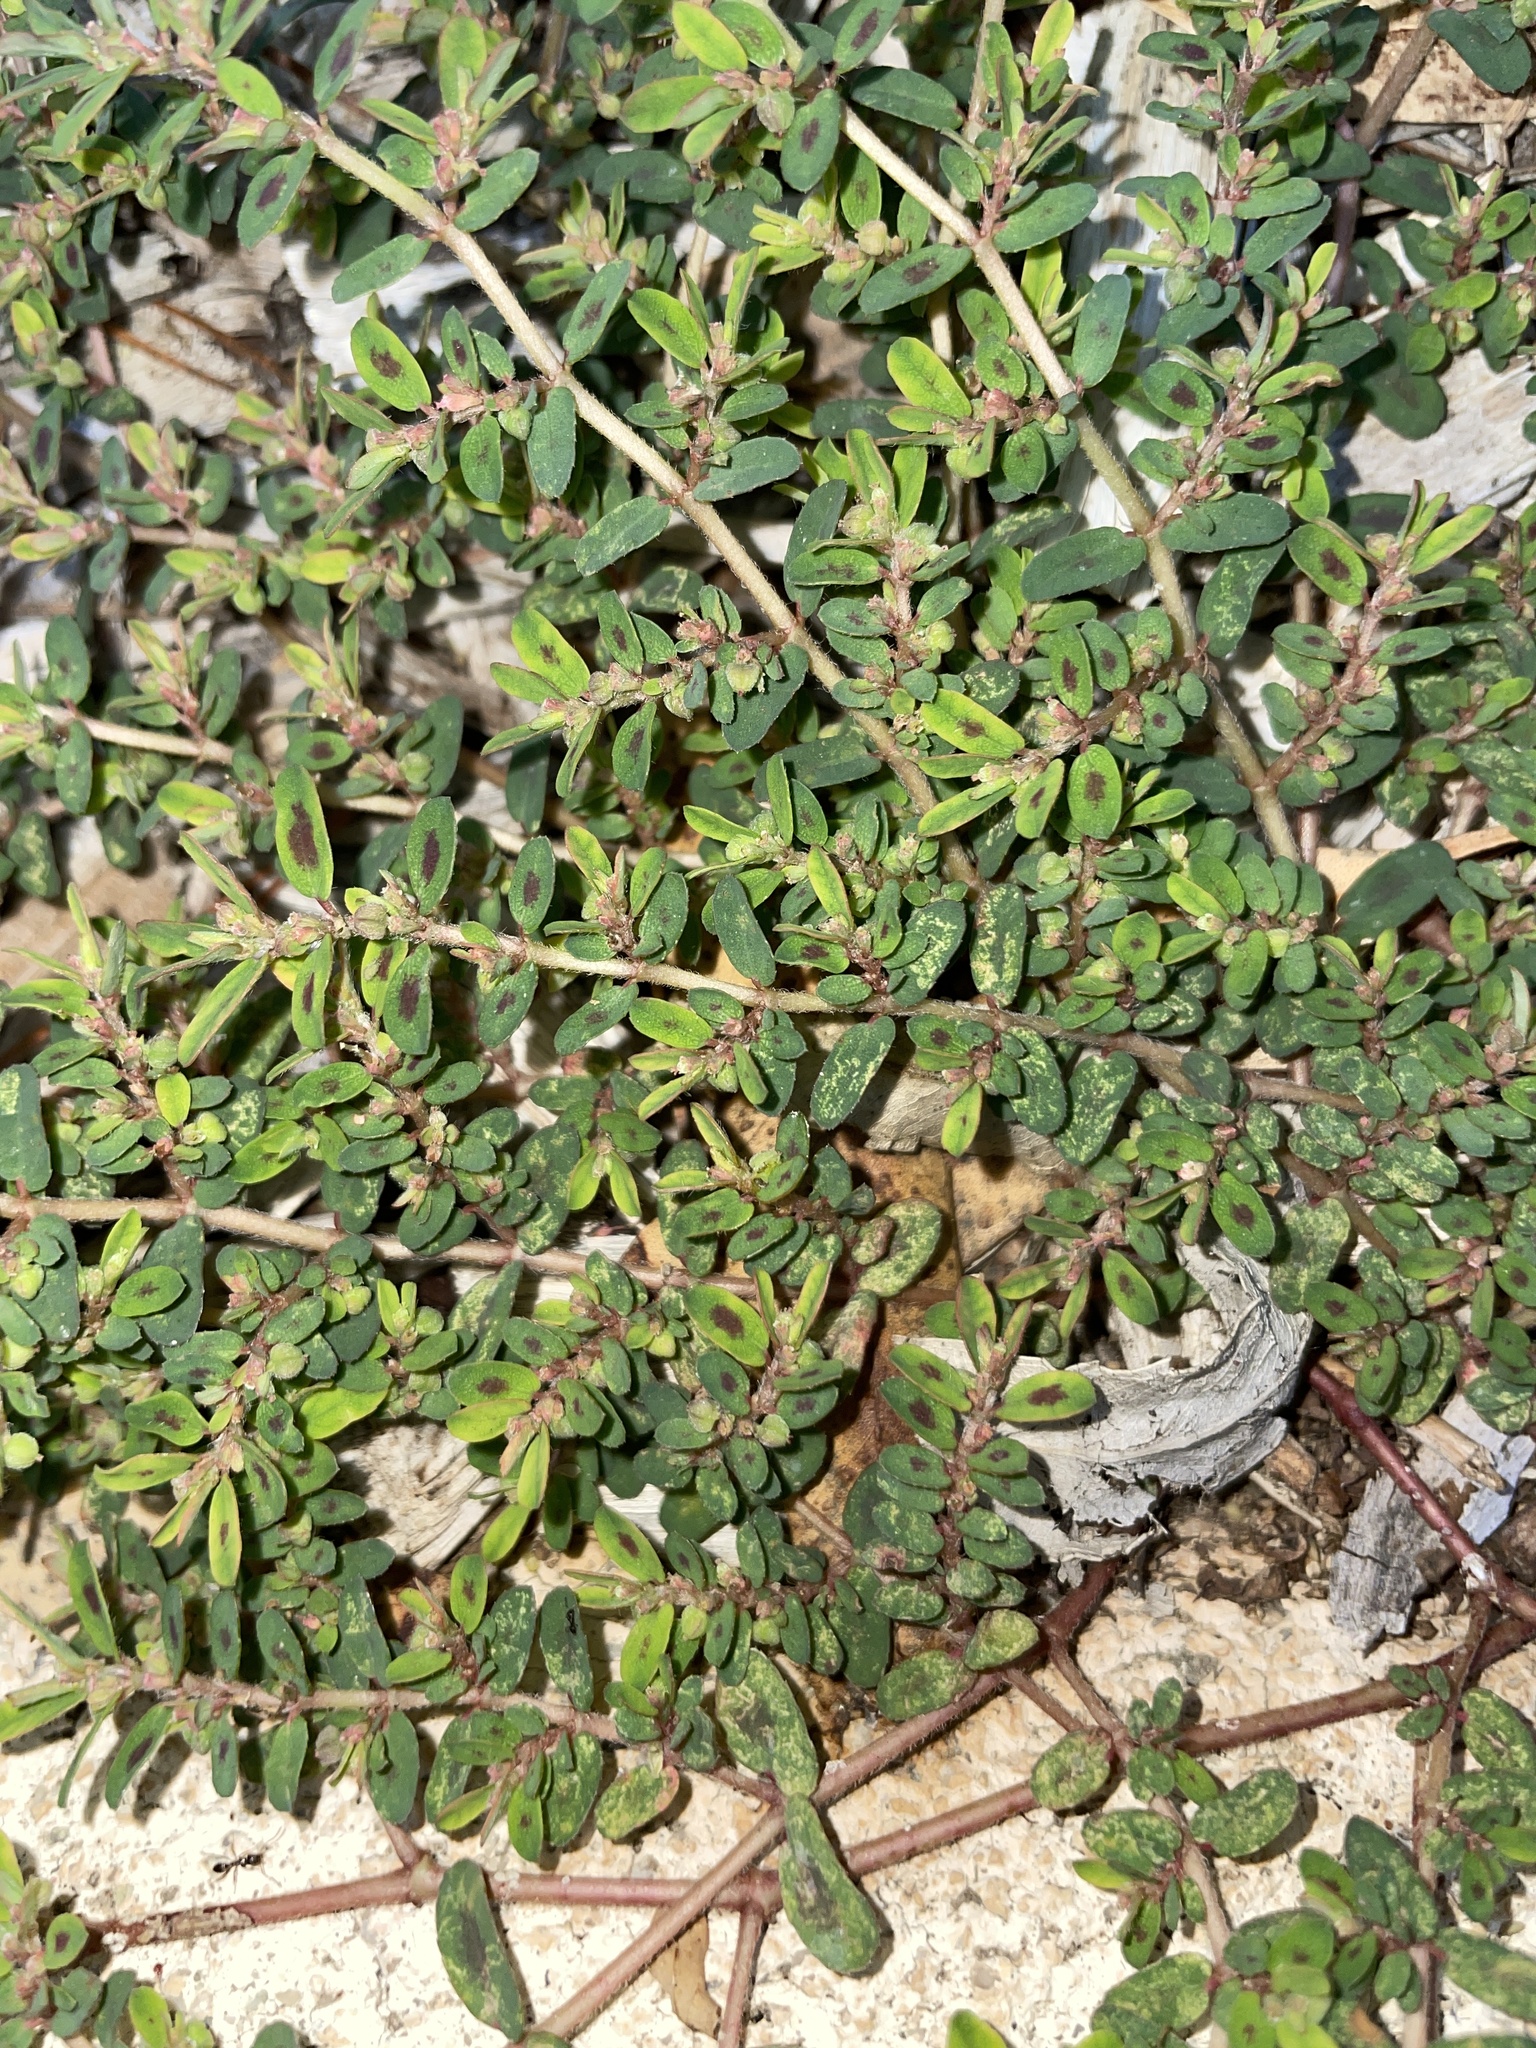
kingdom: Plantae
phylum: Tracheophyta
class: Magnoliopsida
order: Malpighiales
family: Euphorbiaceae
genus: Euphorbia
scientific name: Euphorbia maculata
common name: Spotted spurge
